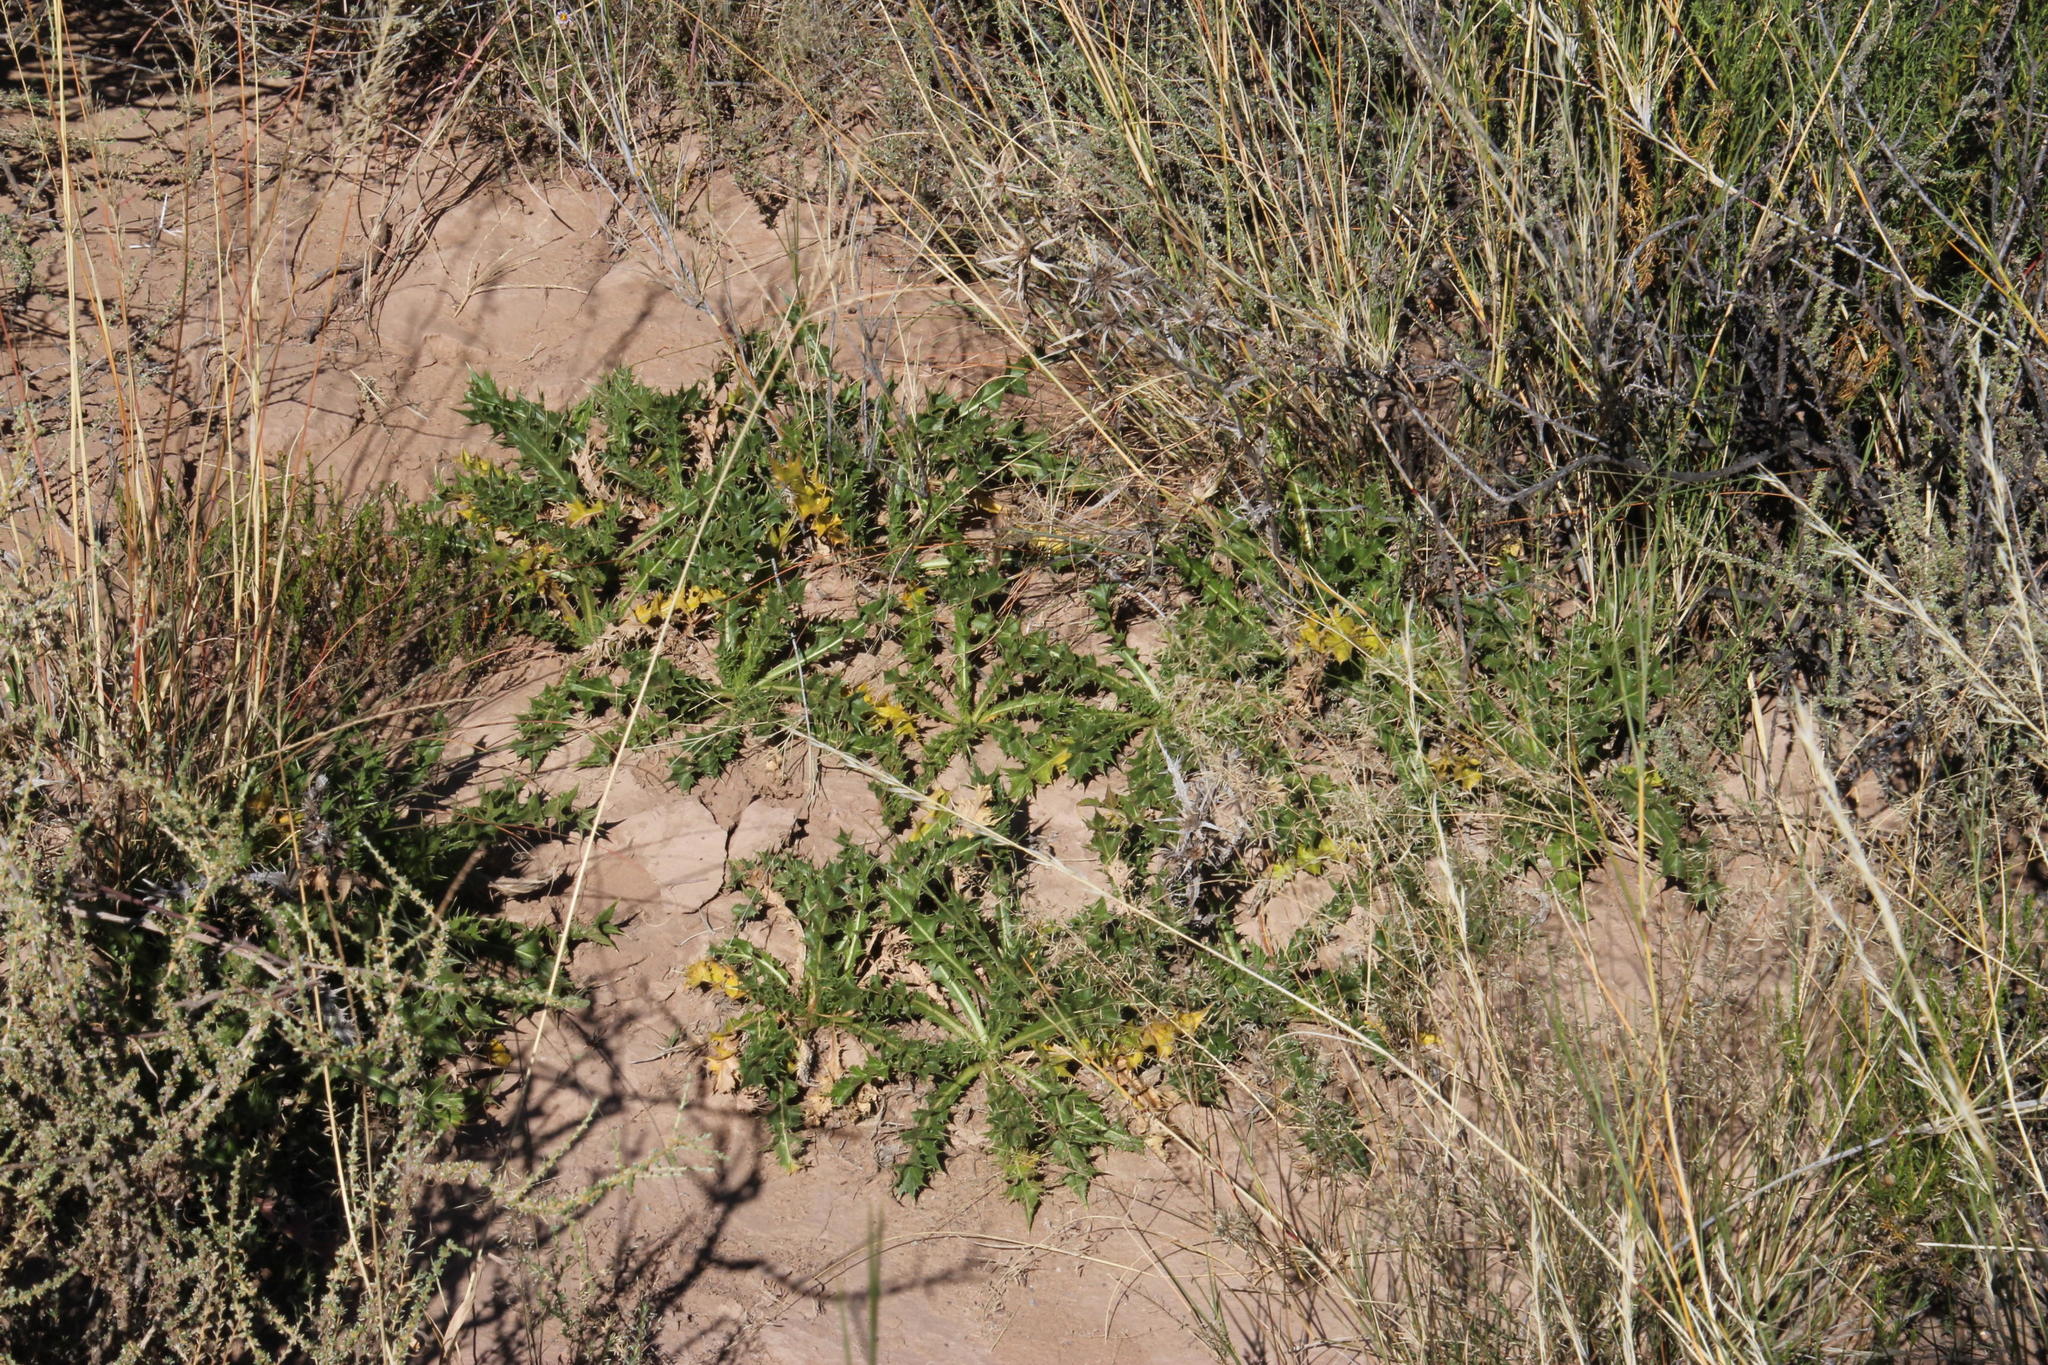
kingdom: Plantae
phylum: Tracheophyta
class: Magnoliopsida
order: Ranunculales
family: Papaveraceae
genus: Argemone
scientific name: Argemone ochroleuca
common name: White-flower mexican-poppy
